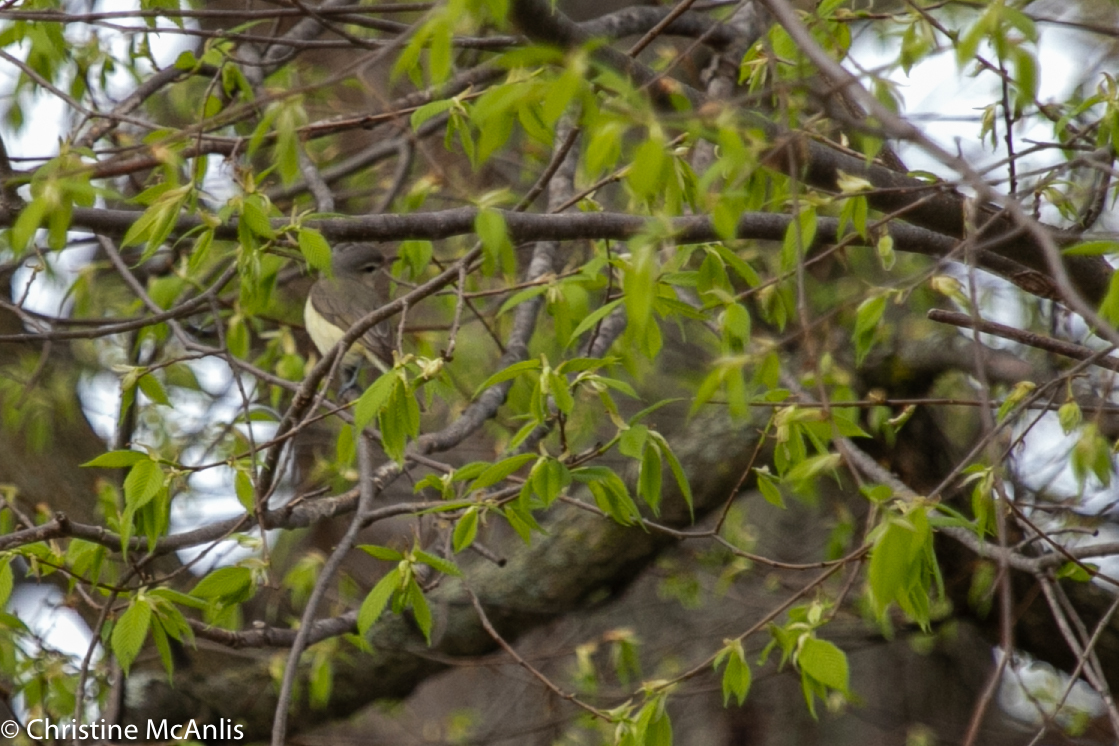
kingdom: Animalia
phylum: Chordata
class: Aves
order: Passeriformes
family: Vireonidae
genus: Vireo
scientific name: Vireo gilvus
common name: Warbling vireo
